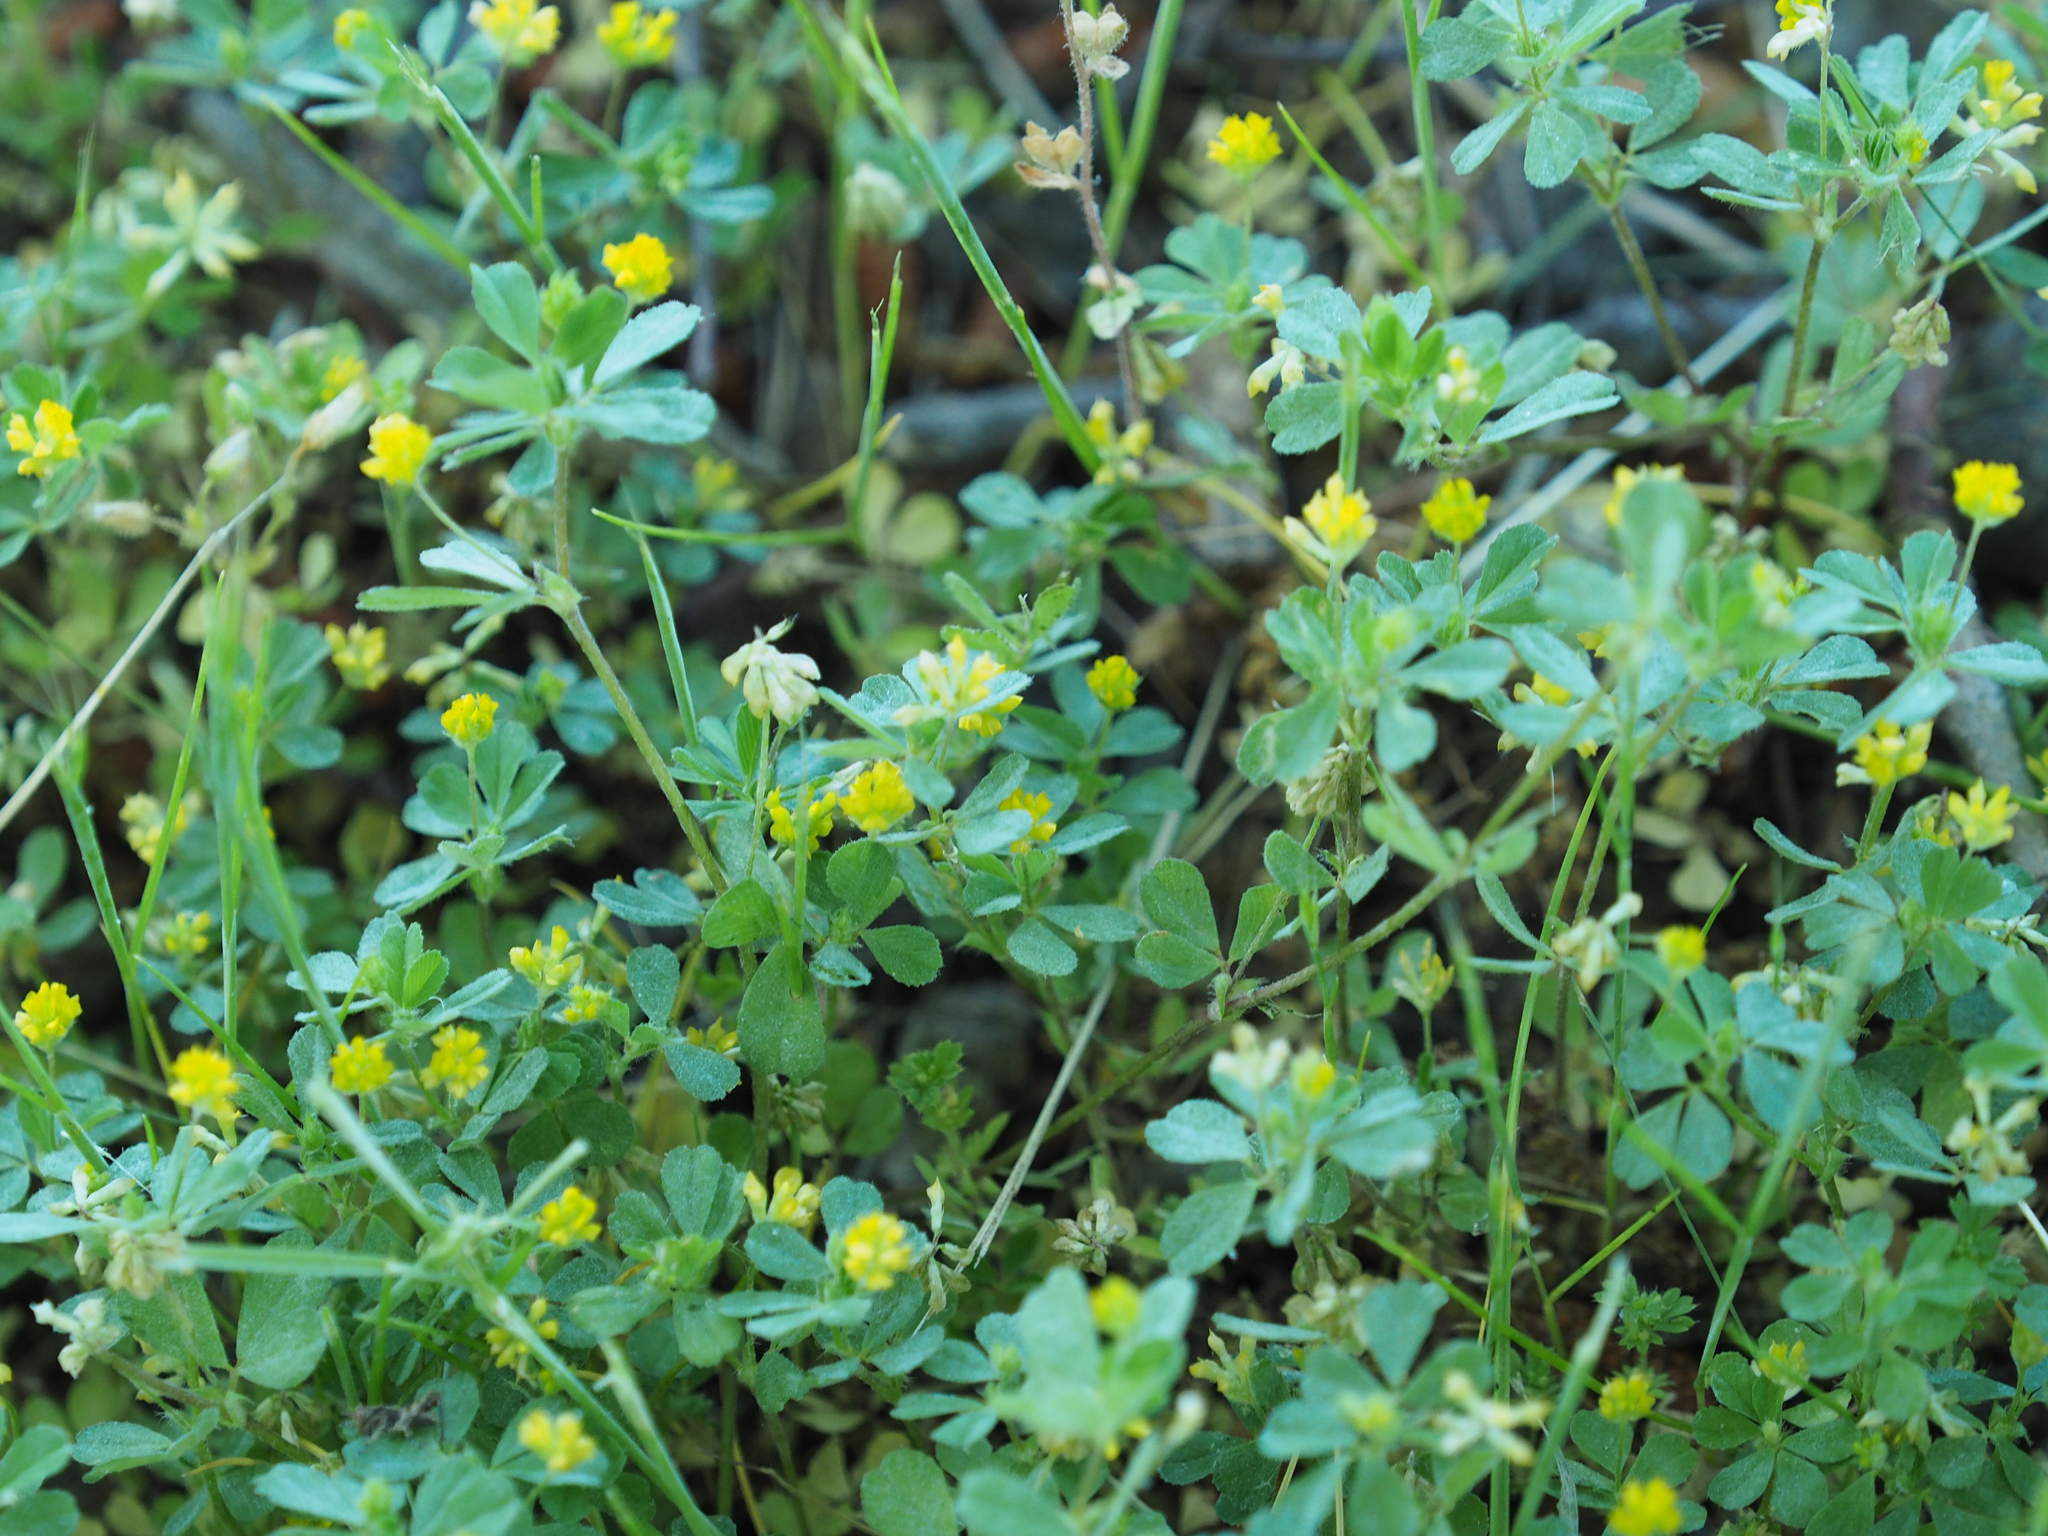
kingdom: Plantae
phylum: Tracheophyta
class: Magnoliopsida
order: Fabales
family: Fabaceae
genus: Trifolium
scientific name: Trifolium dubium
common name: Suckling clover
